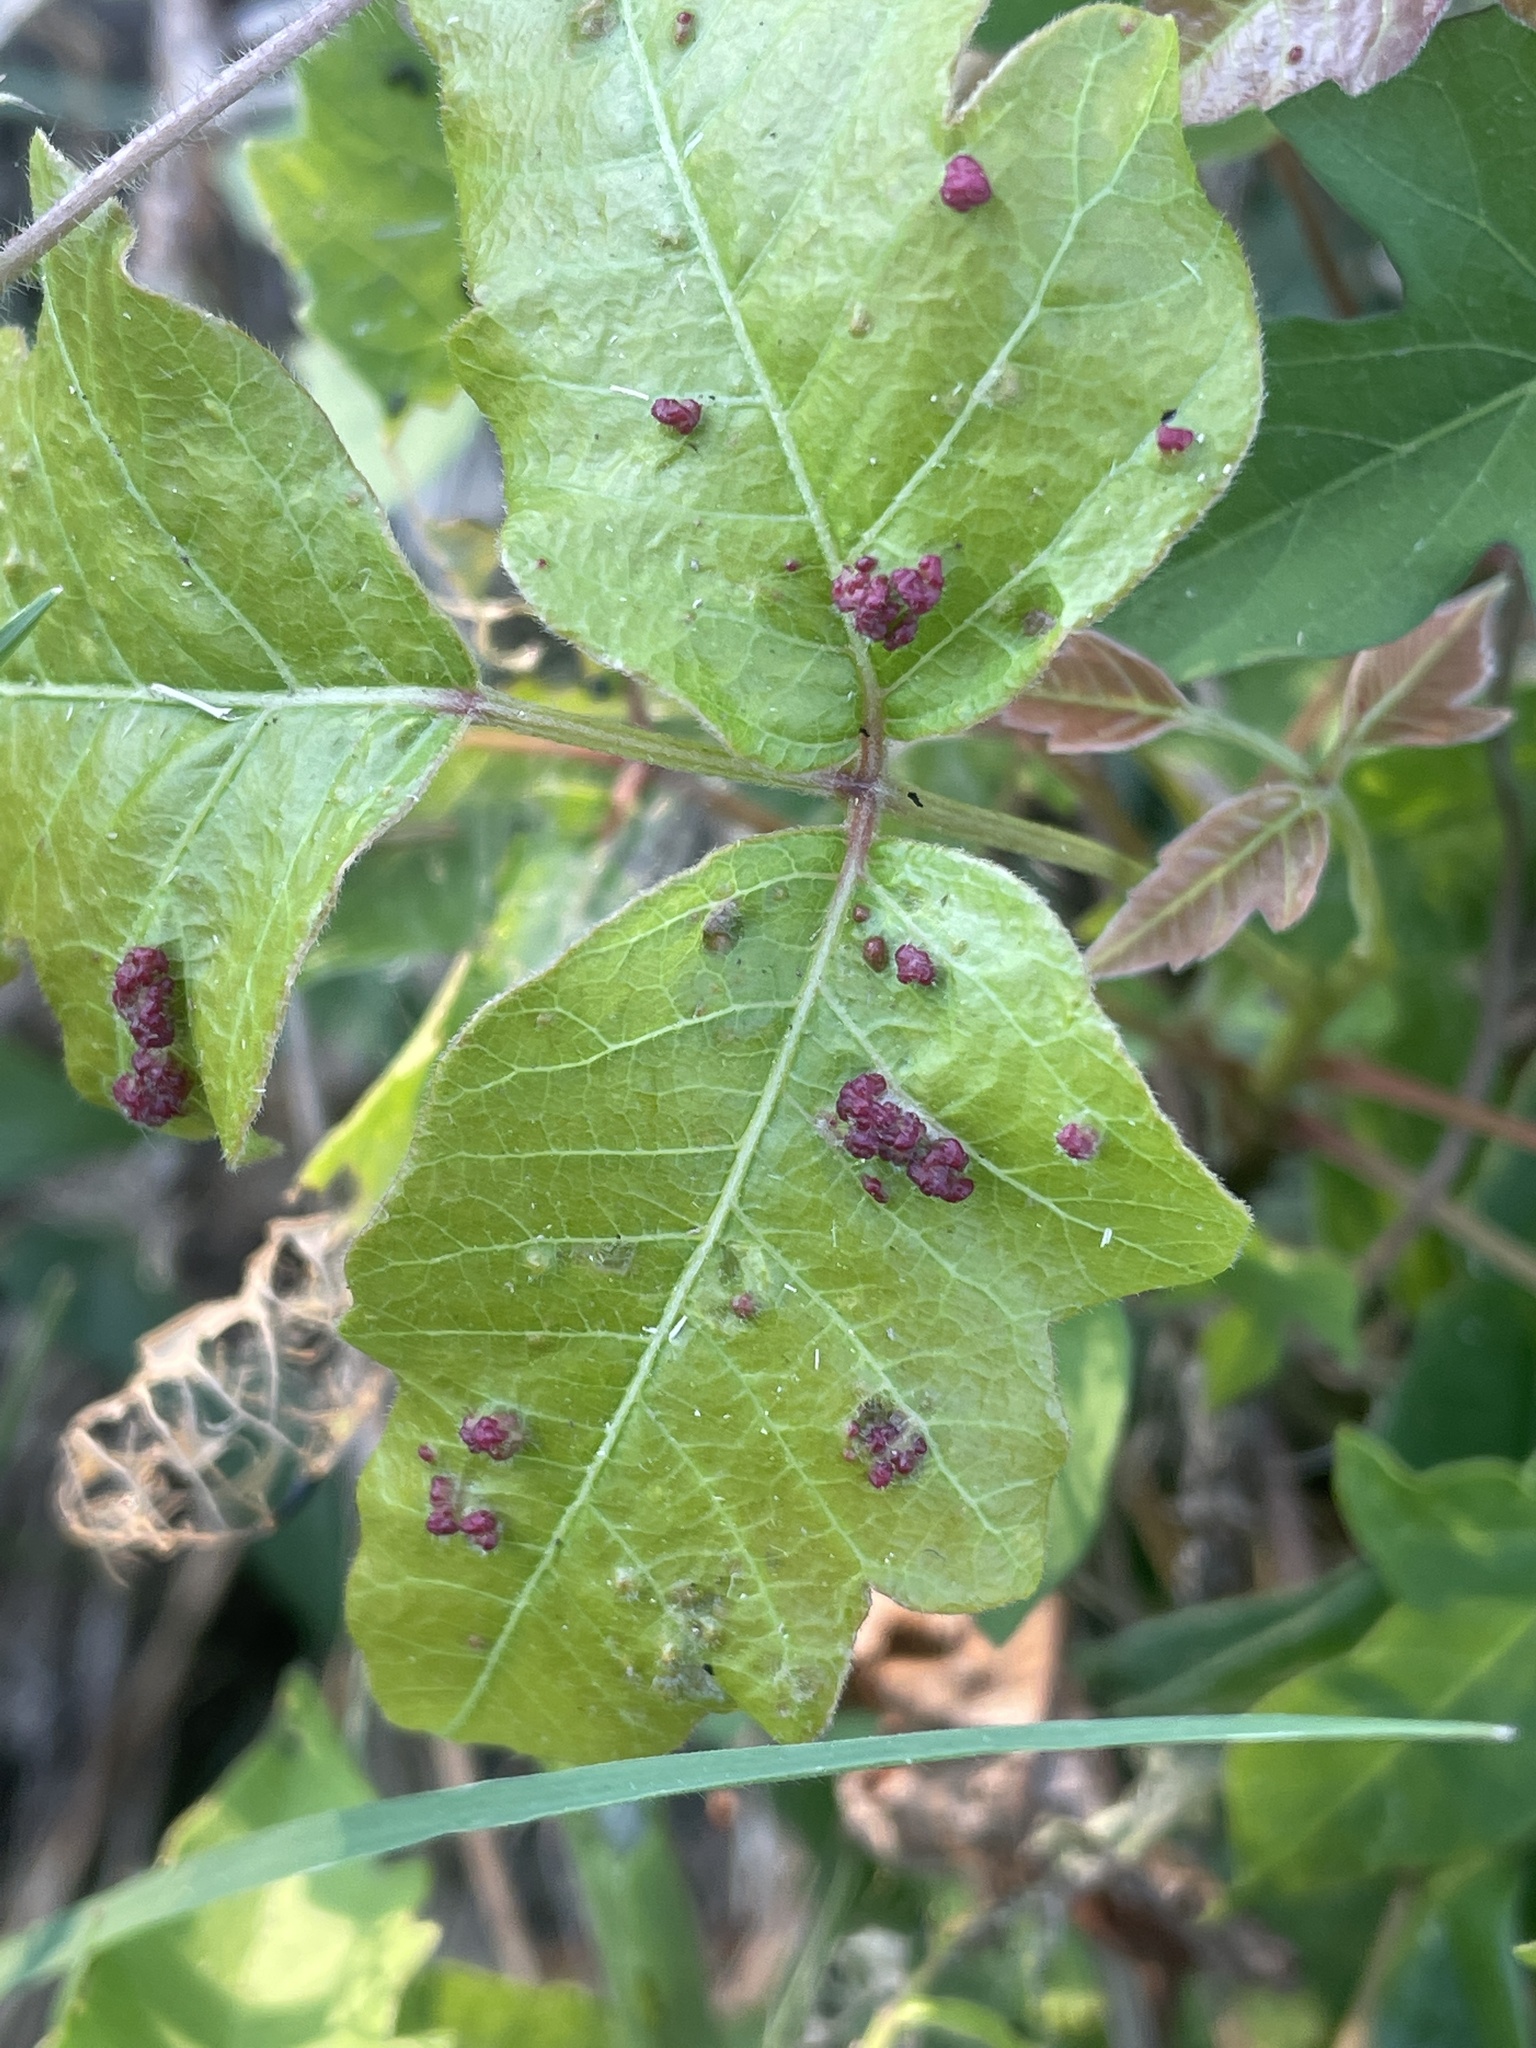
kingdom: Animalia
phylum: Arthropoda
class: Arachnida
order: Trombidiformes
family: Eriophyidae
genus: Aculops
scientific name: Aculops
